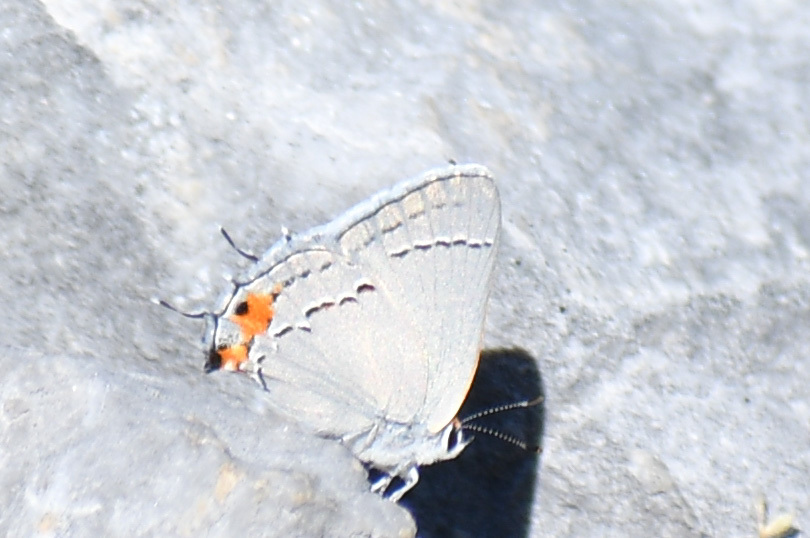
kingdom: Animalia
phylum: Arthropoda
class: Insecta
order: Lepidoptera
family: Lycaenidae
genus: Strymon
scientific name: Strymon melinus
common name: Gray hairstreak
